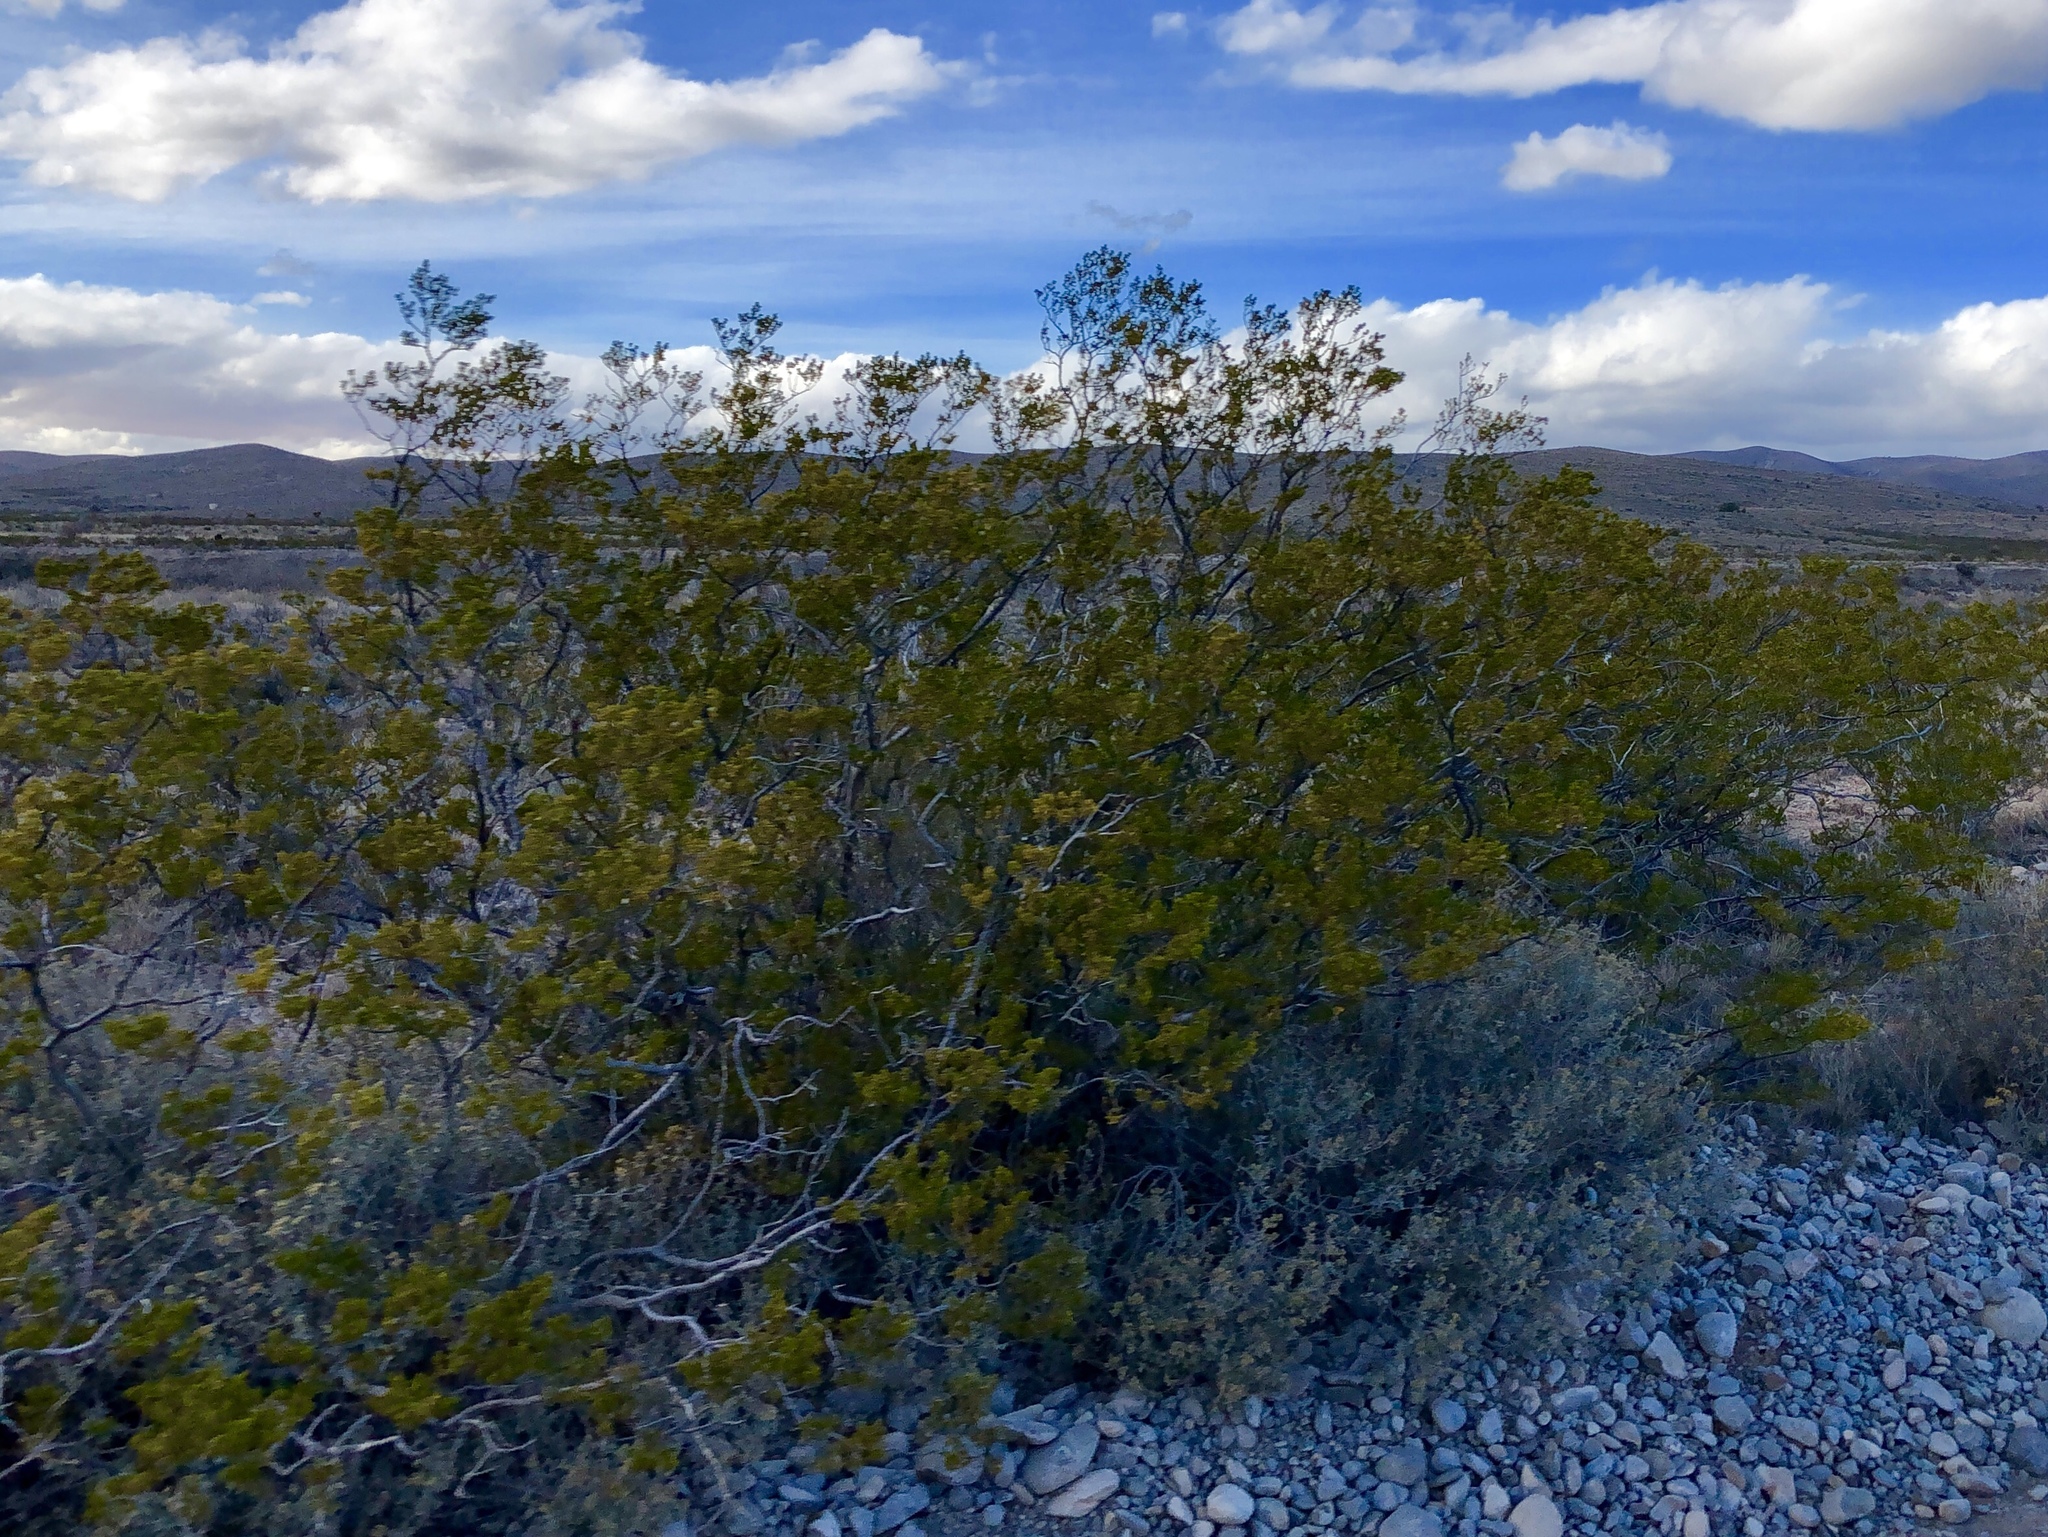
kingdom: Plantae
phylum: Tracheophyta
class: Magnoliopsida
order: Zygophyllales
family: Zygophyllaceae
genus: Larrea
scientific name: Larrea tridentata
